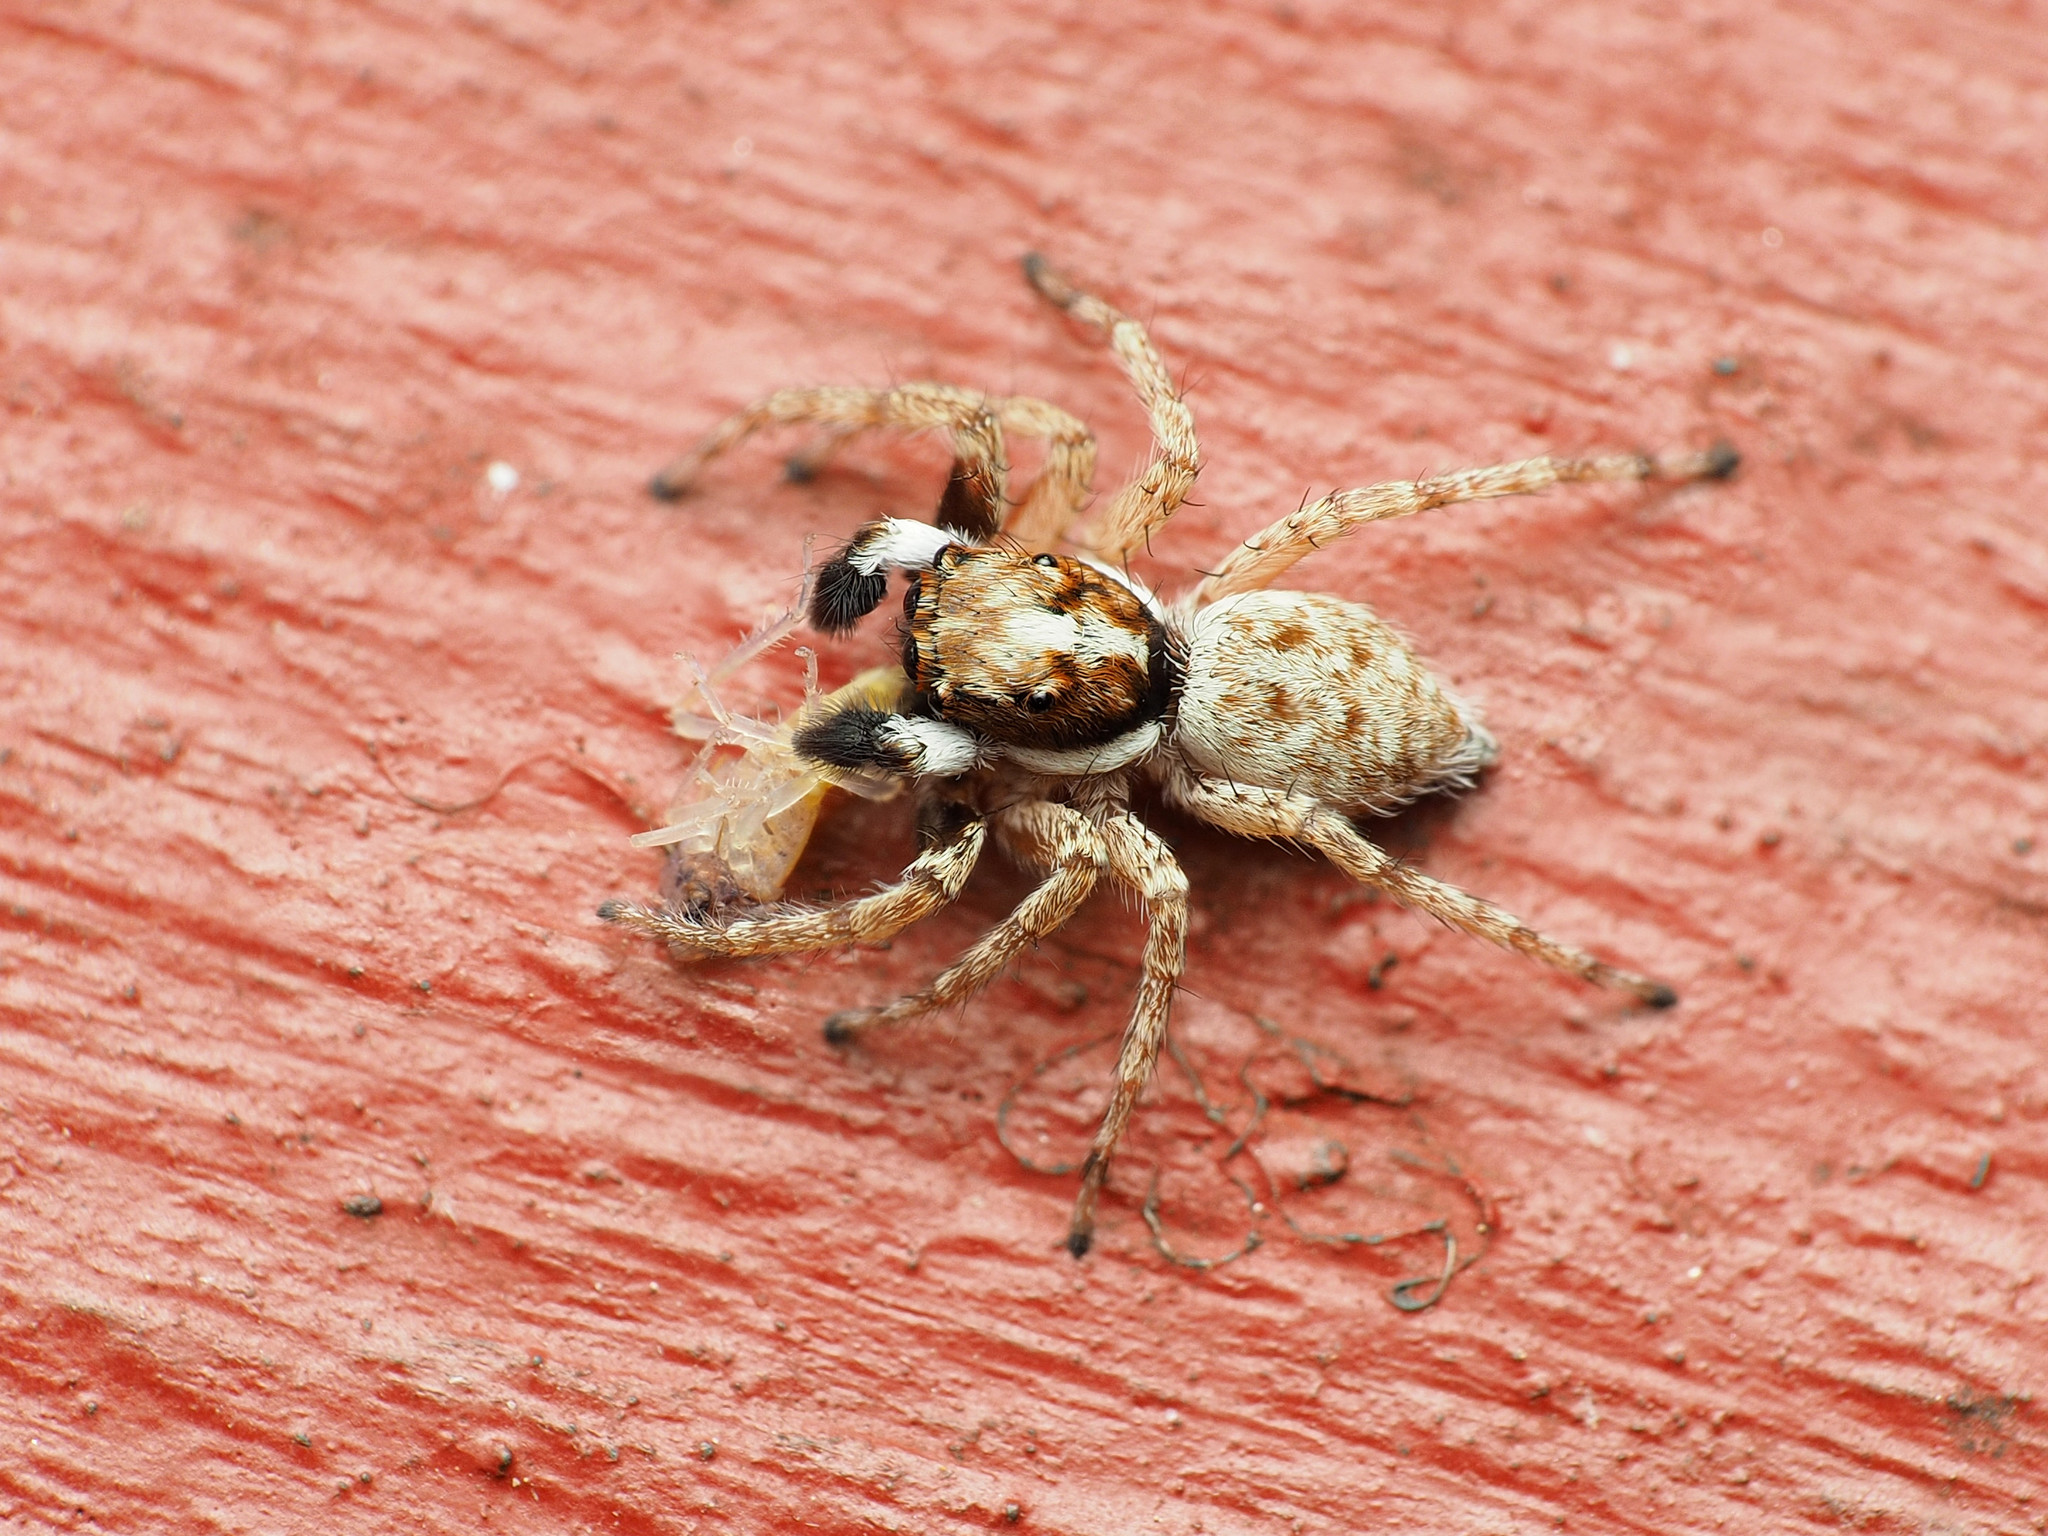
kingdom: Animalia
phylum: Arthropoda
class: Arachnida
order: Araneae
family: Salticidae
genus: Menemerus
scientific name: Menemerus semilimbatus
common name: Jumping spider
